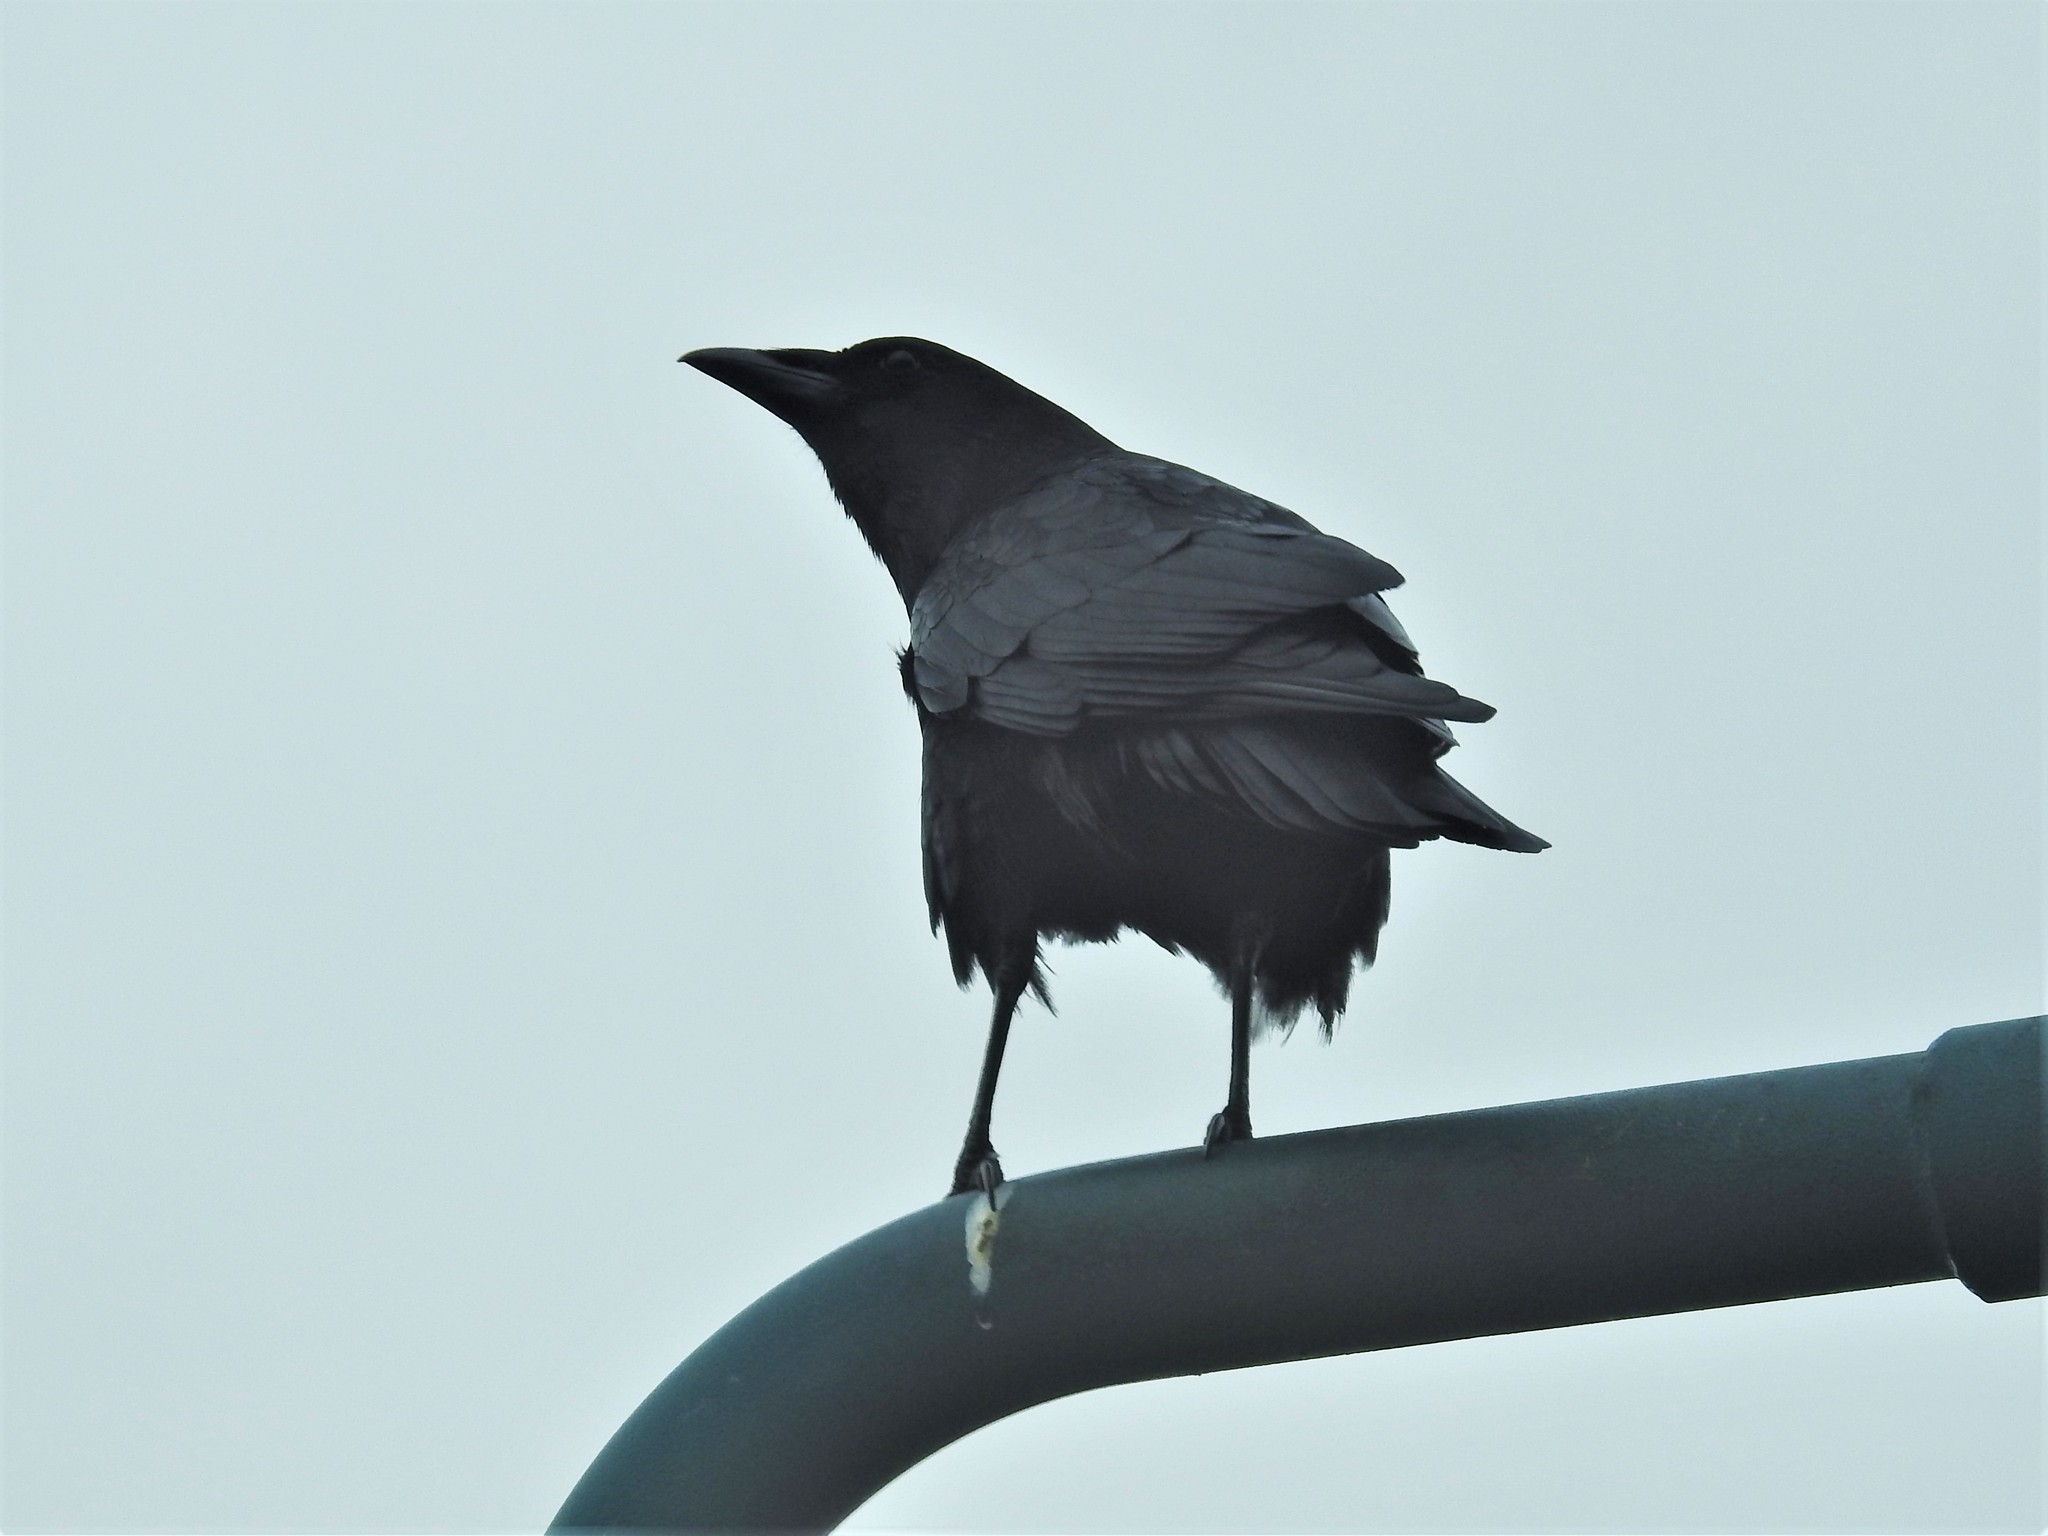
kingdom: Animalia
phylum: Chordata
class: Aves
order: Passeriformes
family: Corvidae
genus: Corvus
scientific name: Corvus brachyrhynchos
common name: American crow
